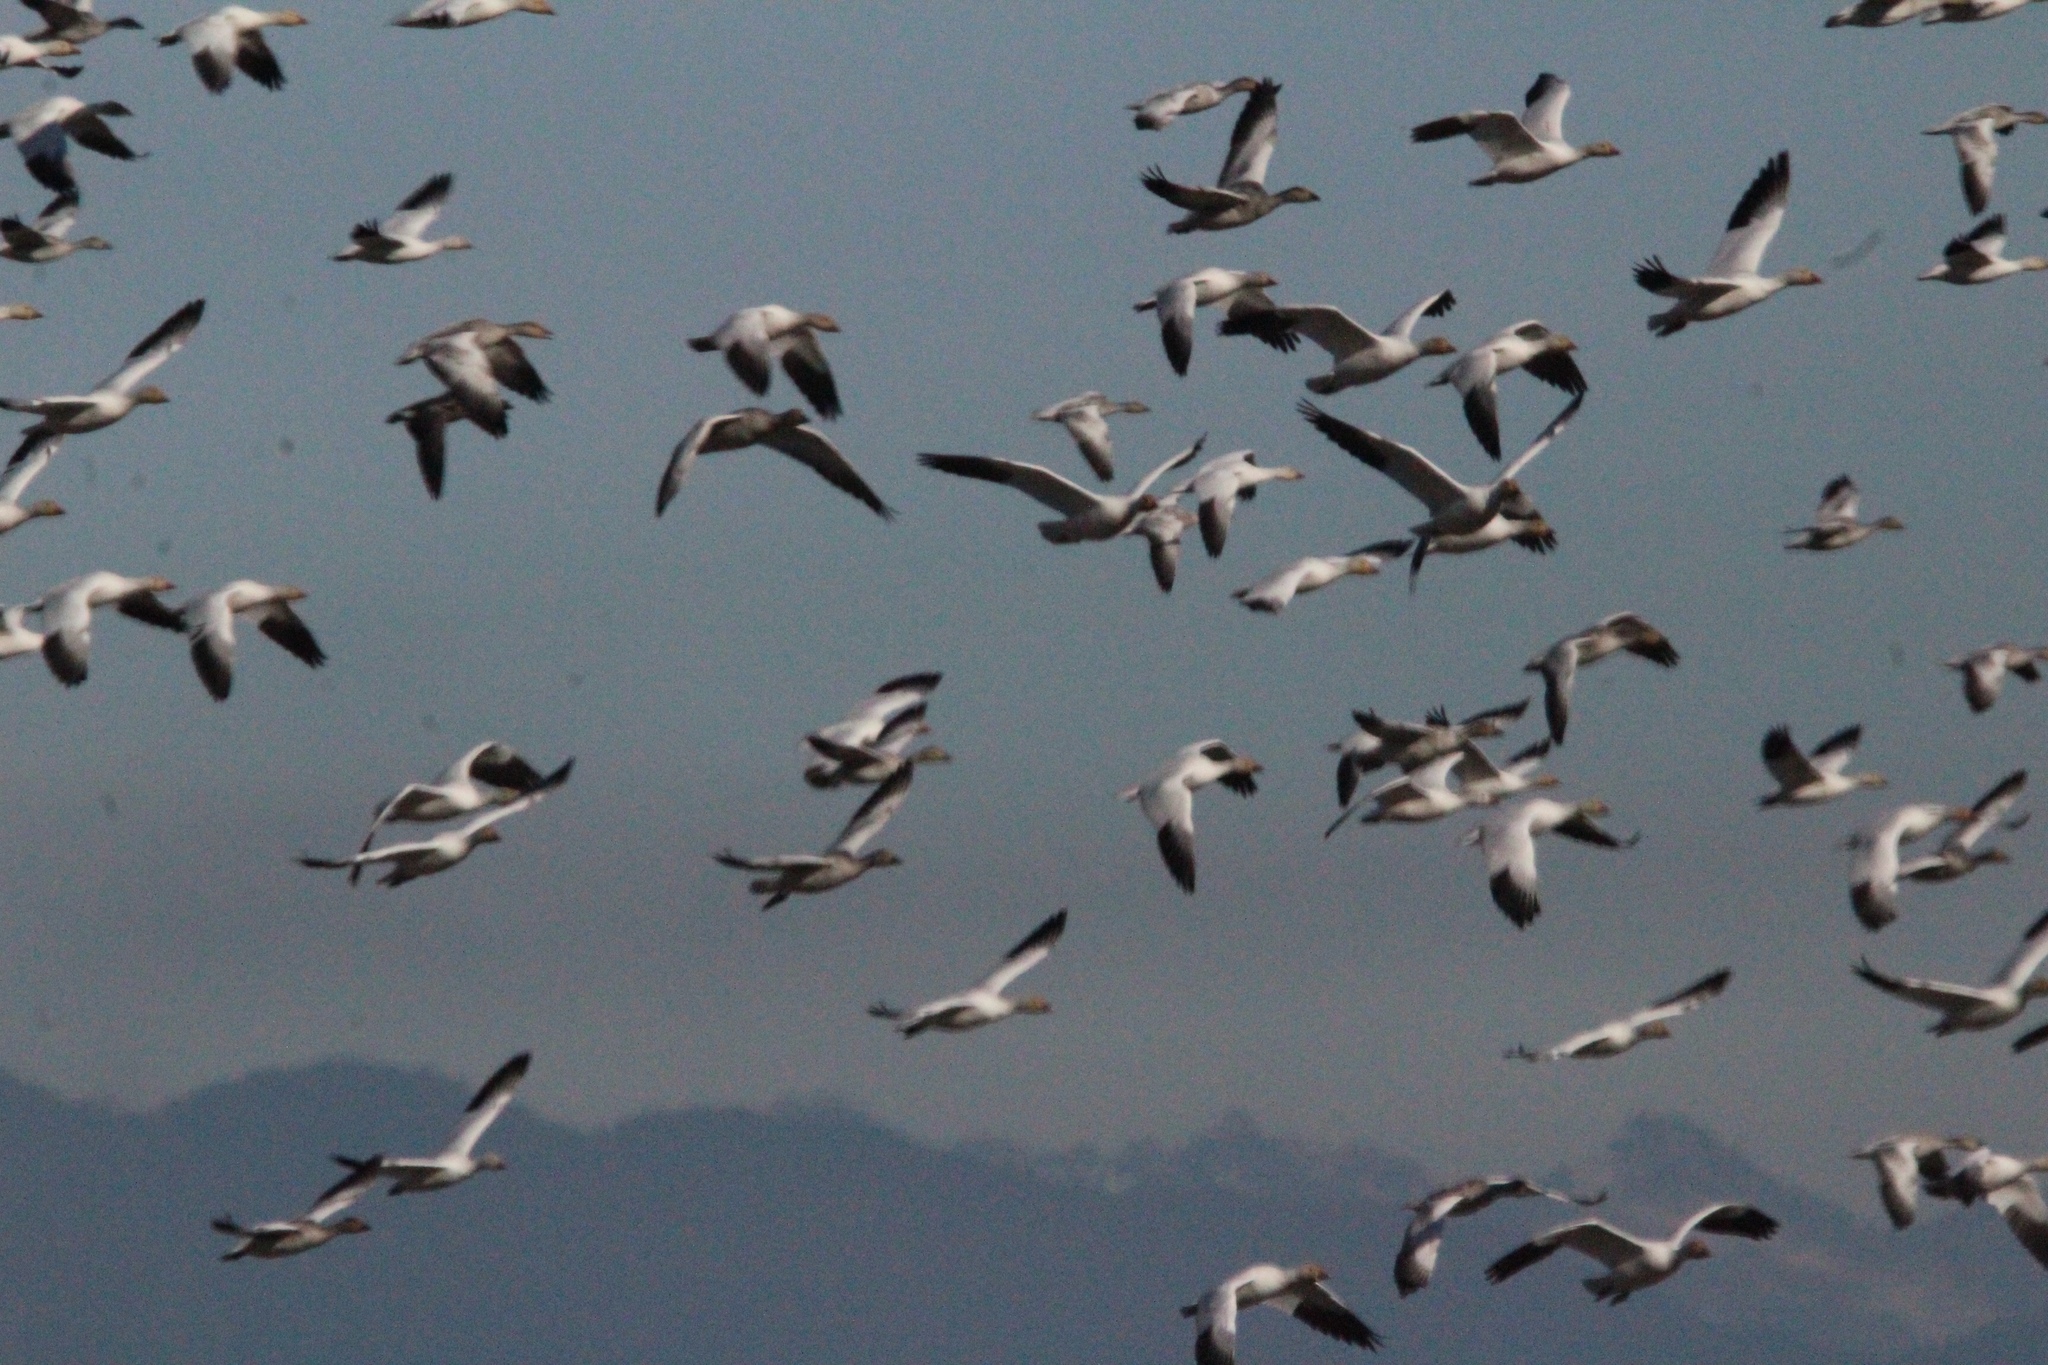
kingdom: Animalia
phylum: Chordata
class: Aves
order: Anseriformes
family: Anatidae
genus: Anser
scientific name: Anser caerulescens
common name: Snow goose
